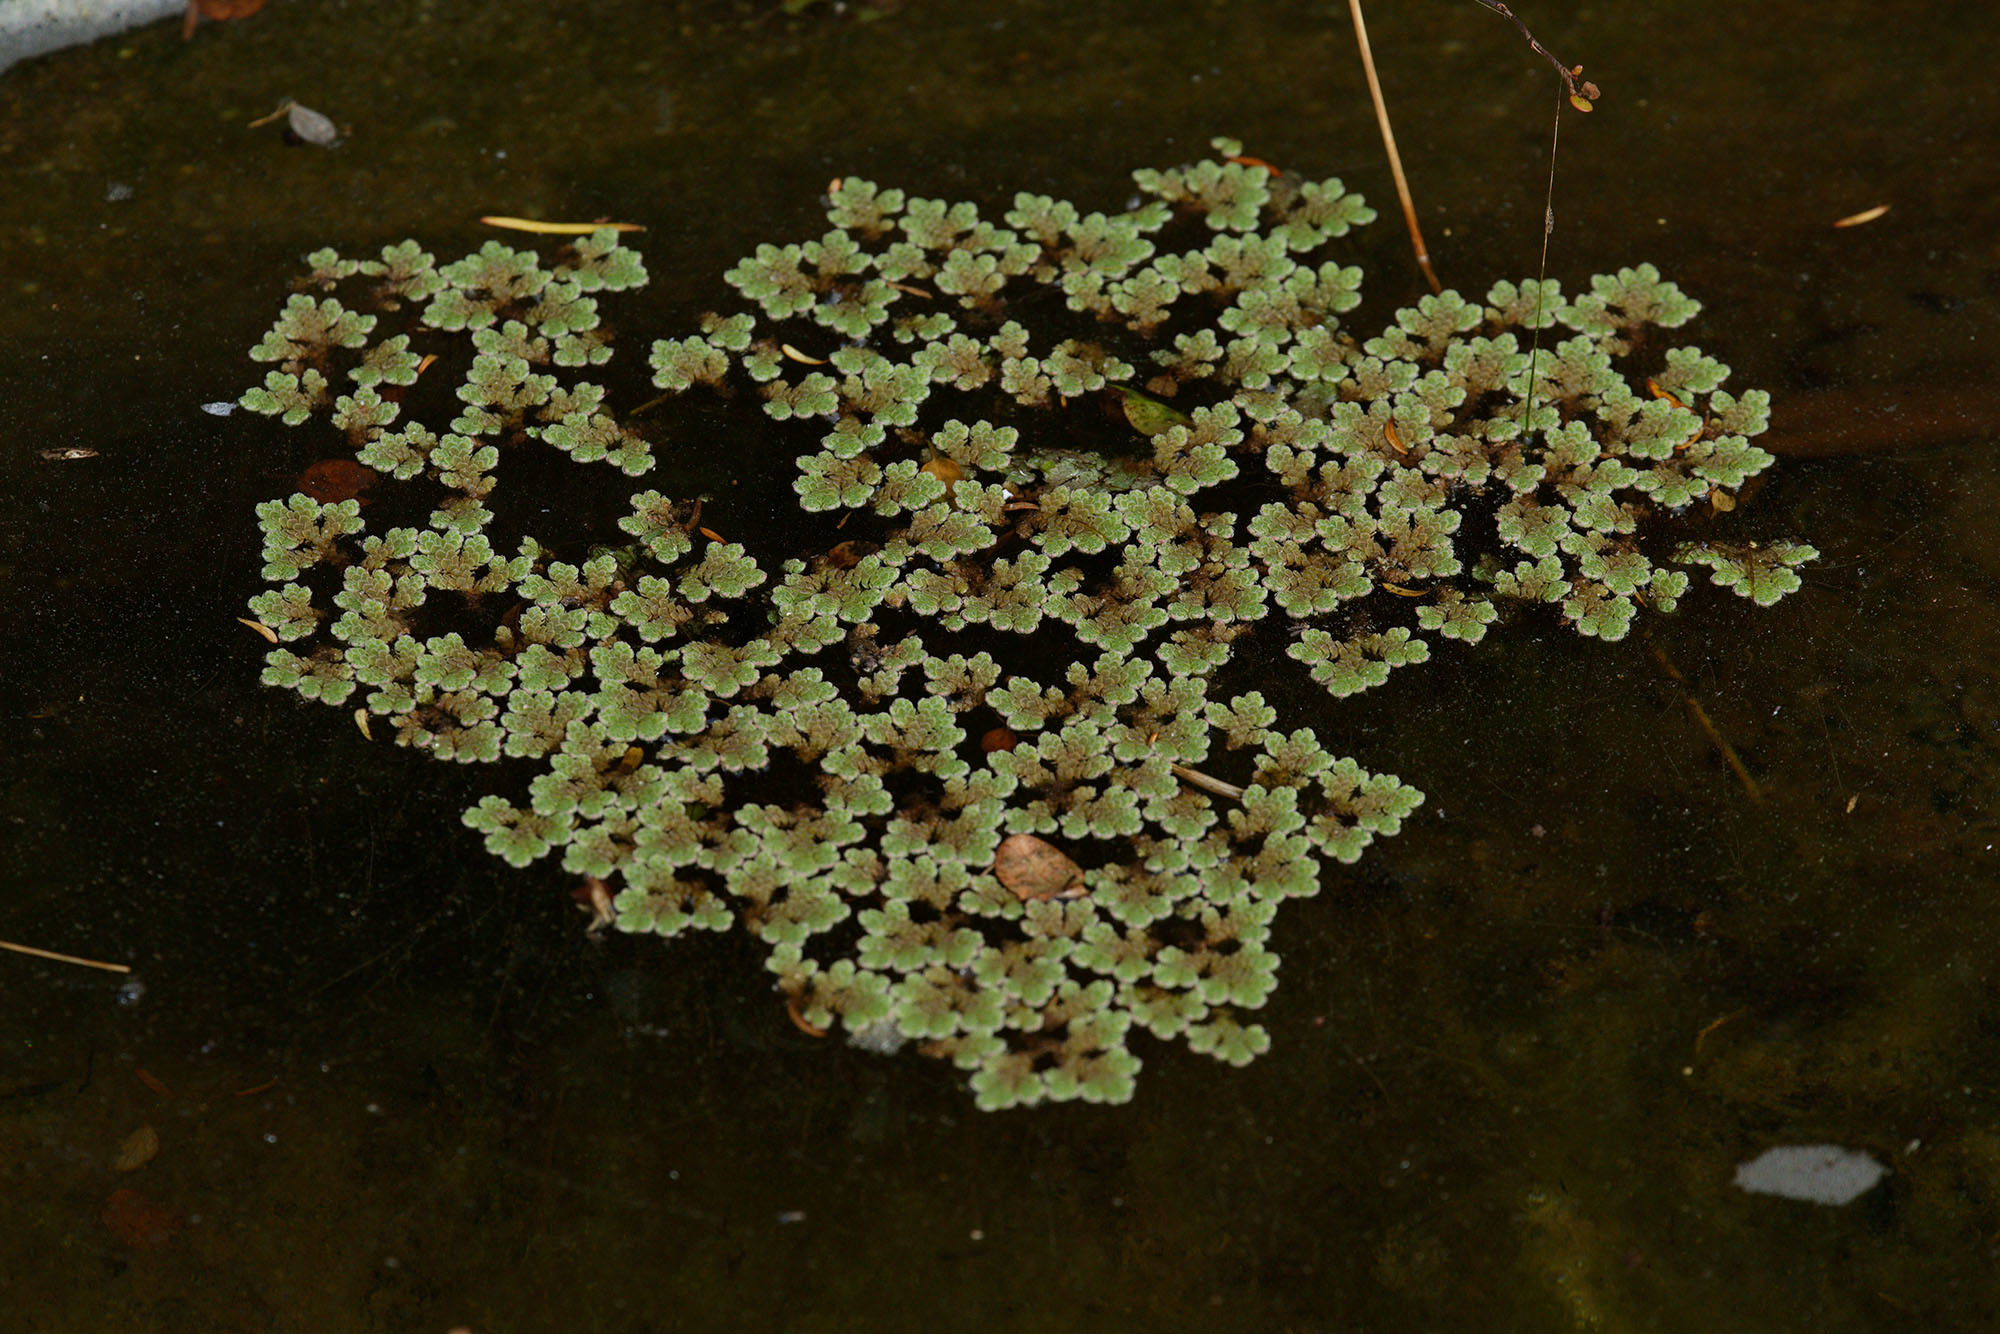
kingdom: Plantae
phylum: Tracheophyta
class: Polypodiopsida
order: Salviniales
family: Salviniaceae
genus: Azolla
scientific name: Azolla rubra
